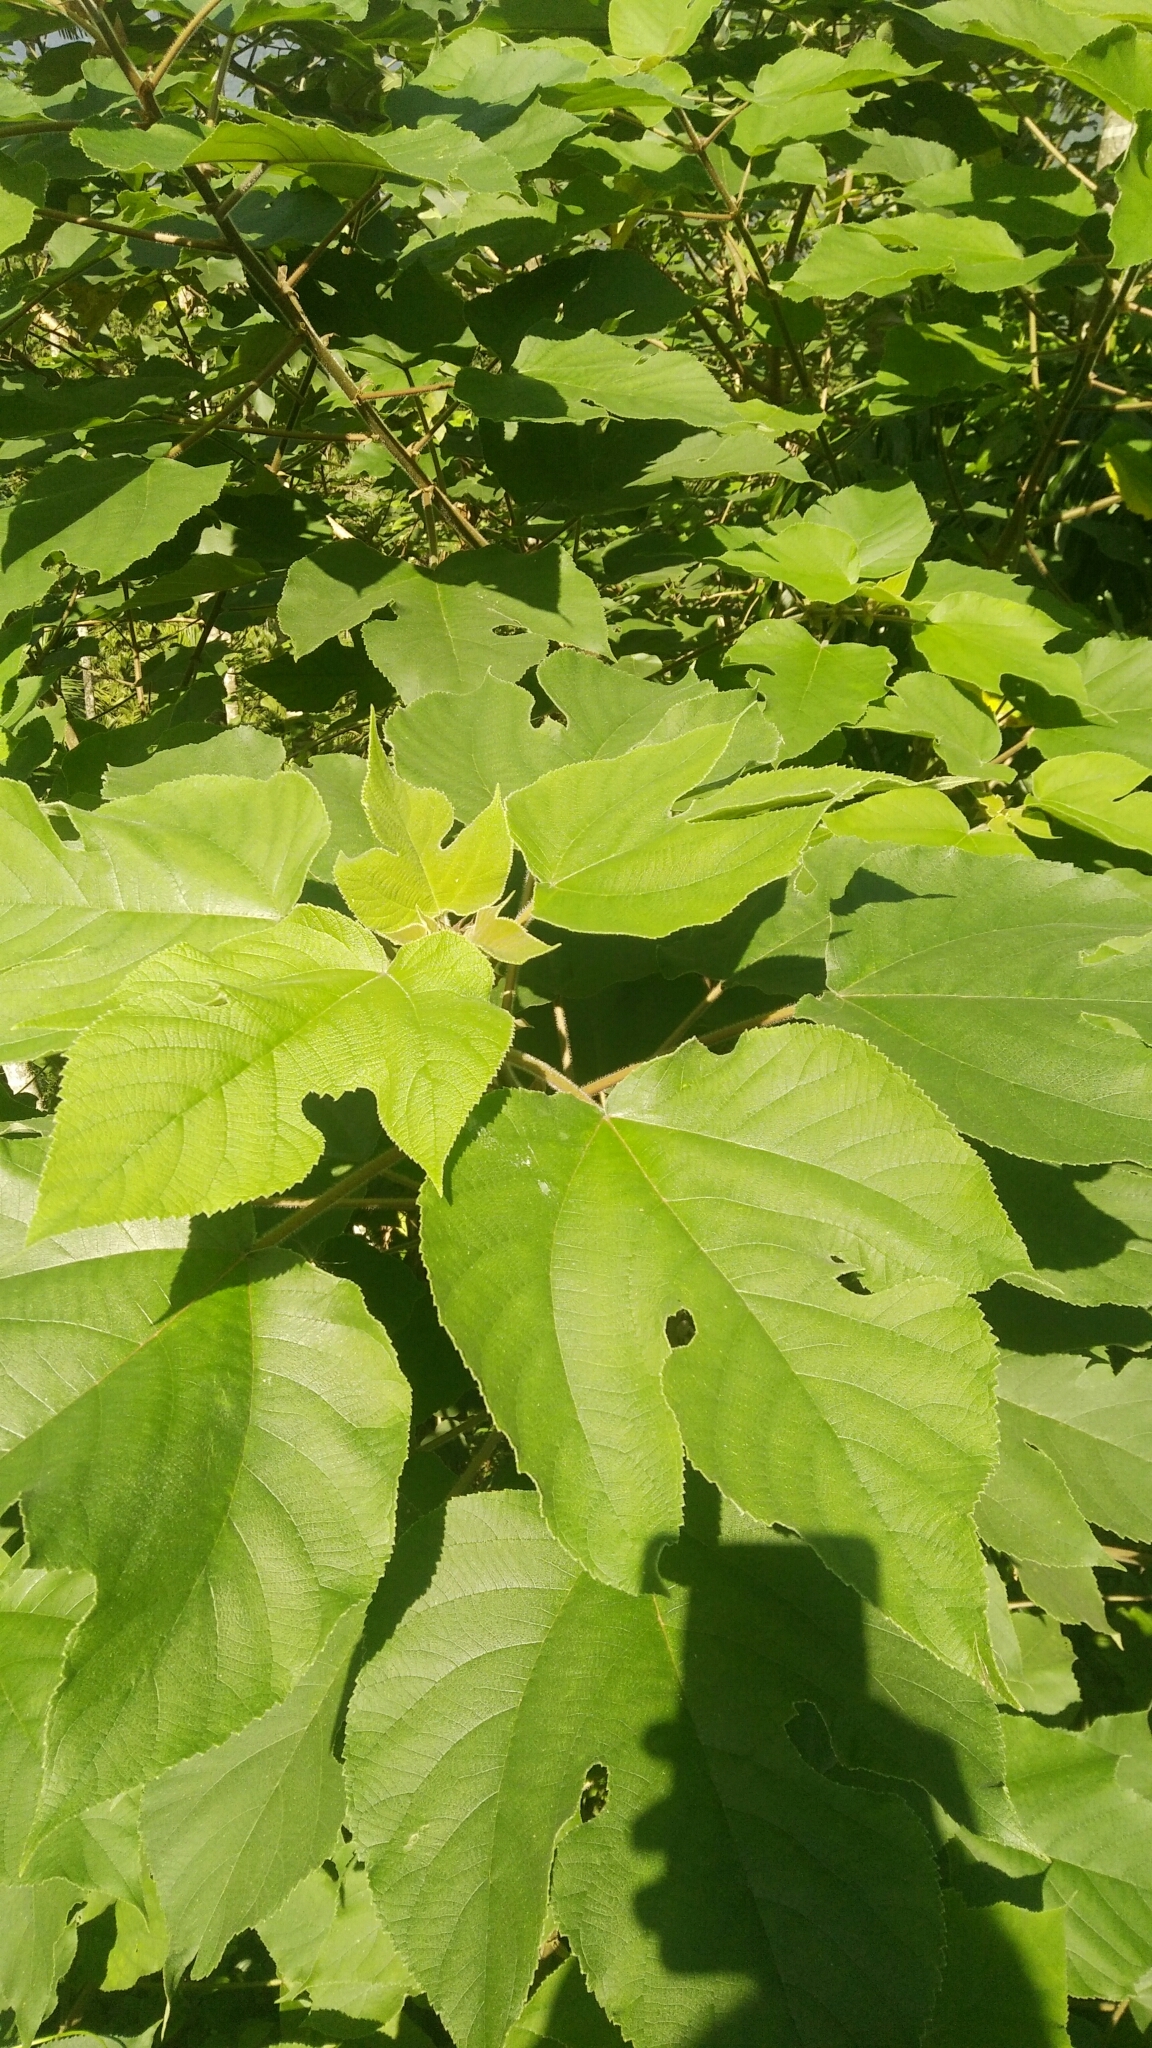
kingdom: Plantae
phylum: Tracheophyta
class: Magnoliopsida
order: Rosales
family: Moraceae
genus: Broussonetia
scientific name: Broussonetia papyrifera
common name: Paper mulberry
